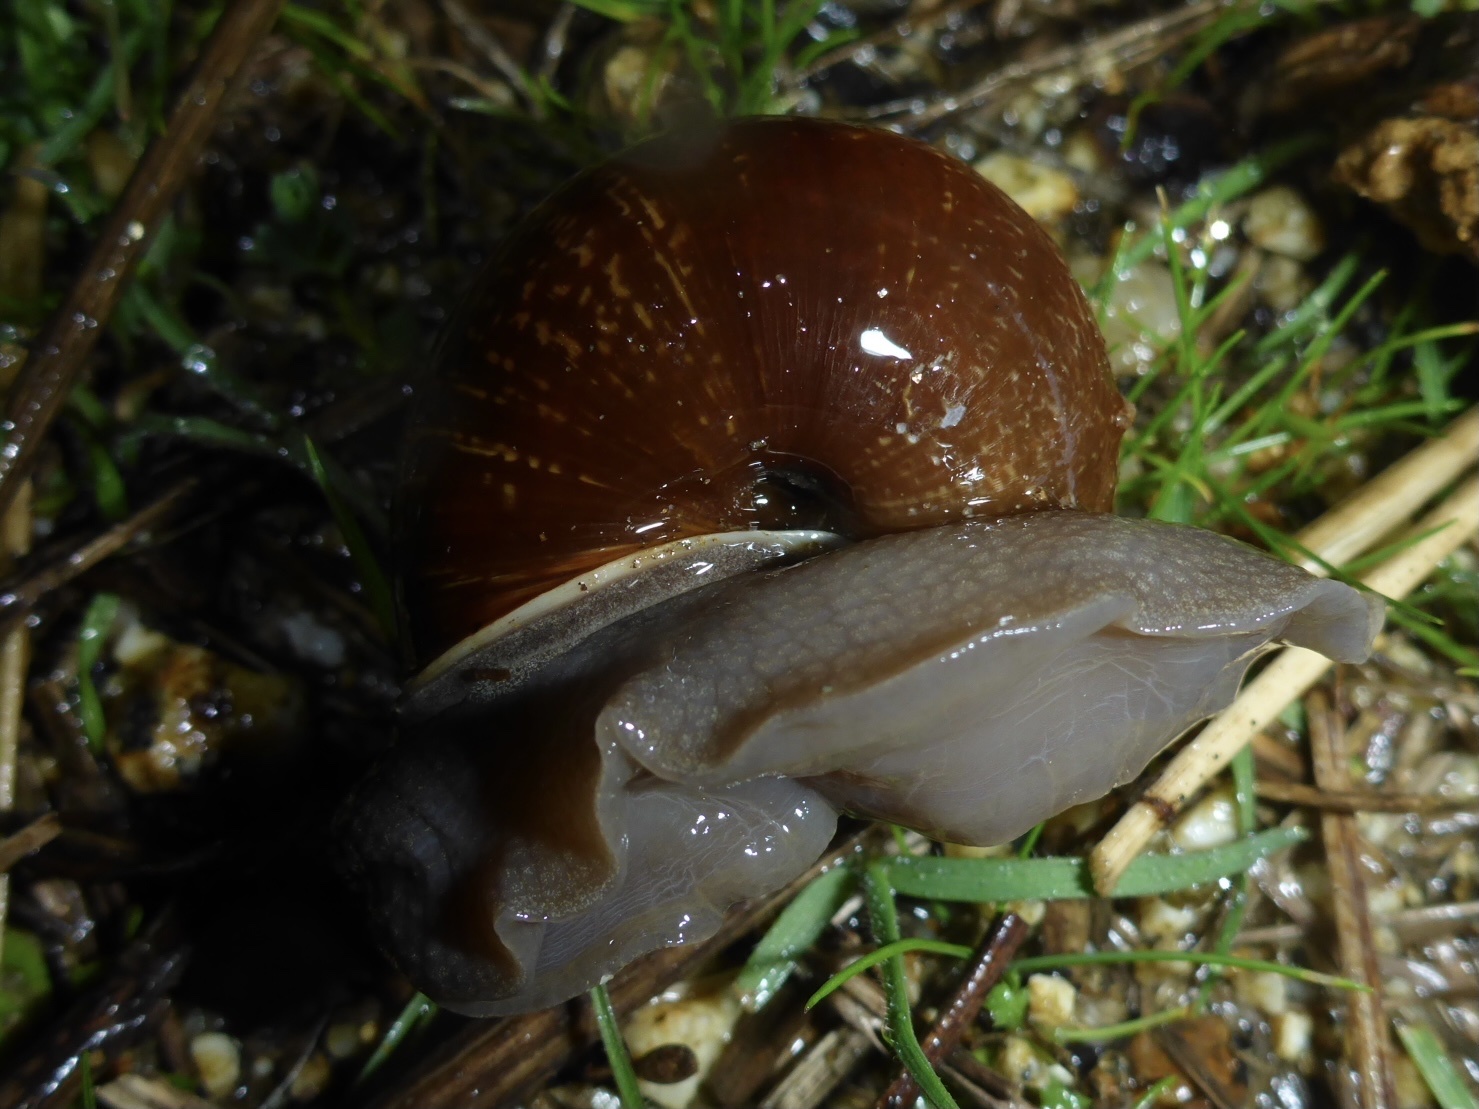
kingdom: Animalia
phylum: Mollusca
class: Gastropoda
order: Stylommatophora
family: Xanthonychidae
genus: Helminthoglypta
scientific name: Helminthoglypta arrosa
